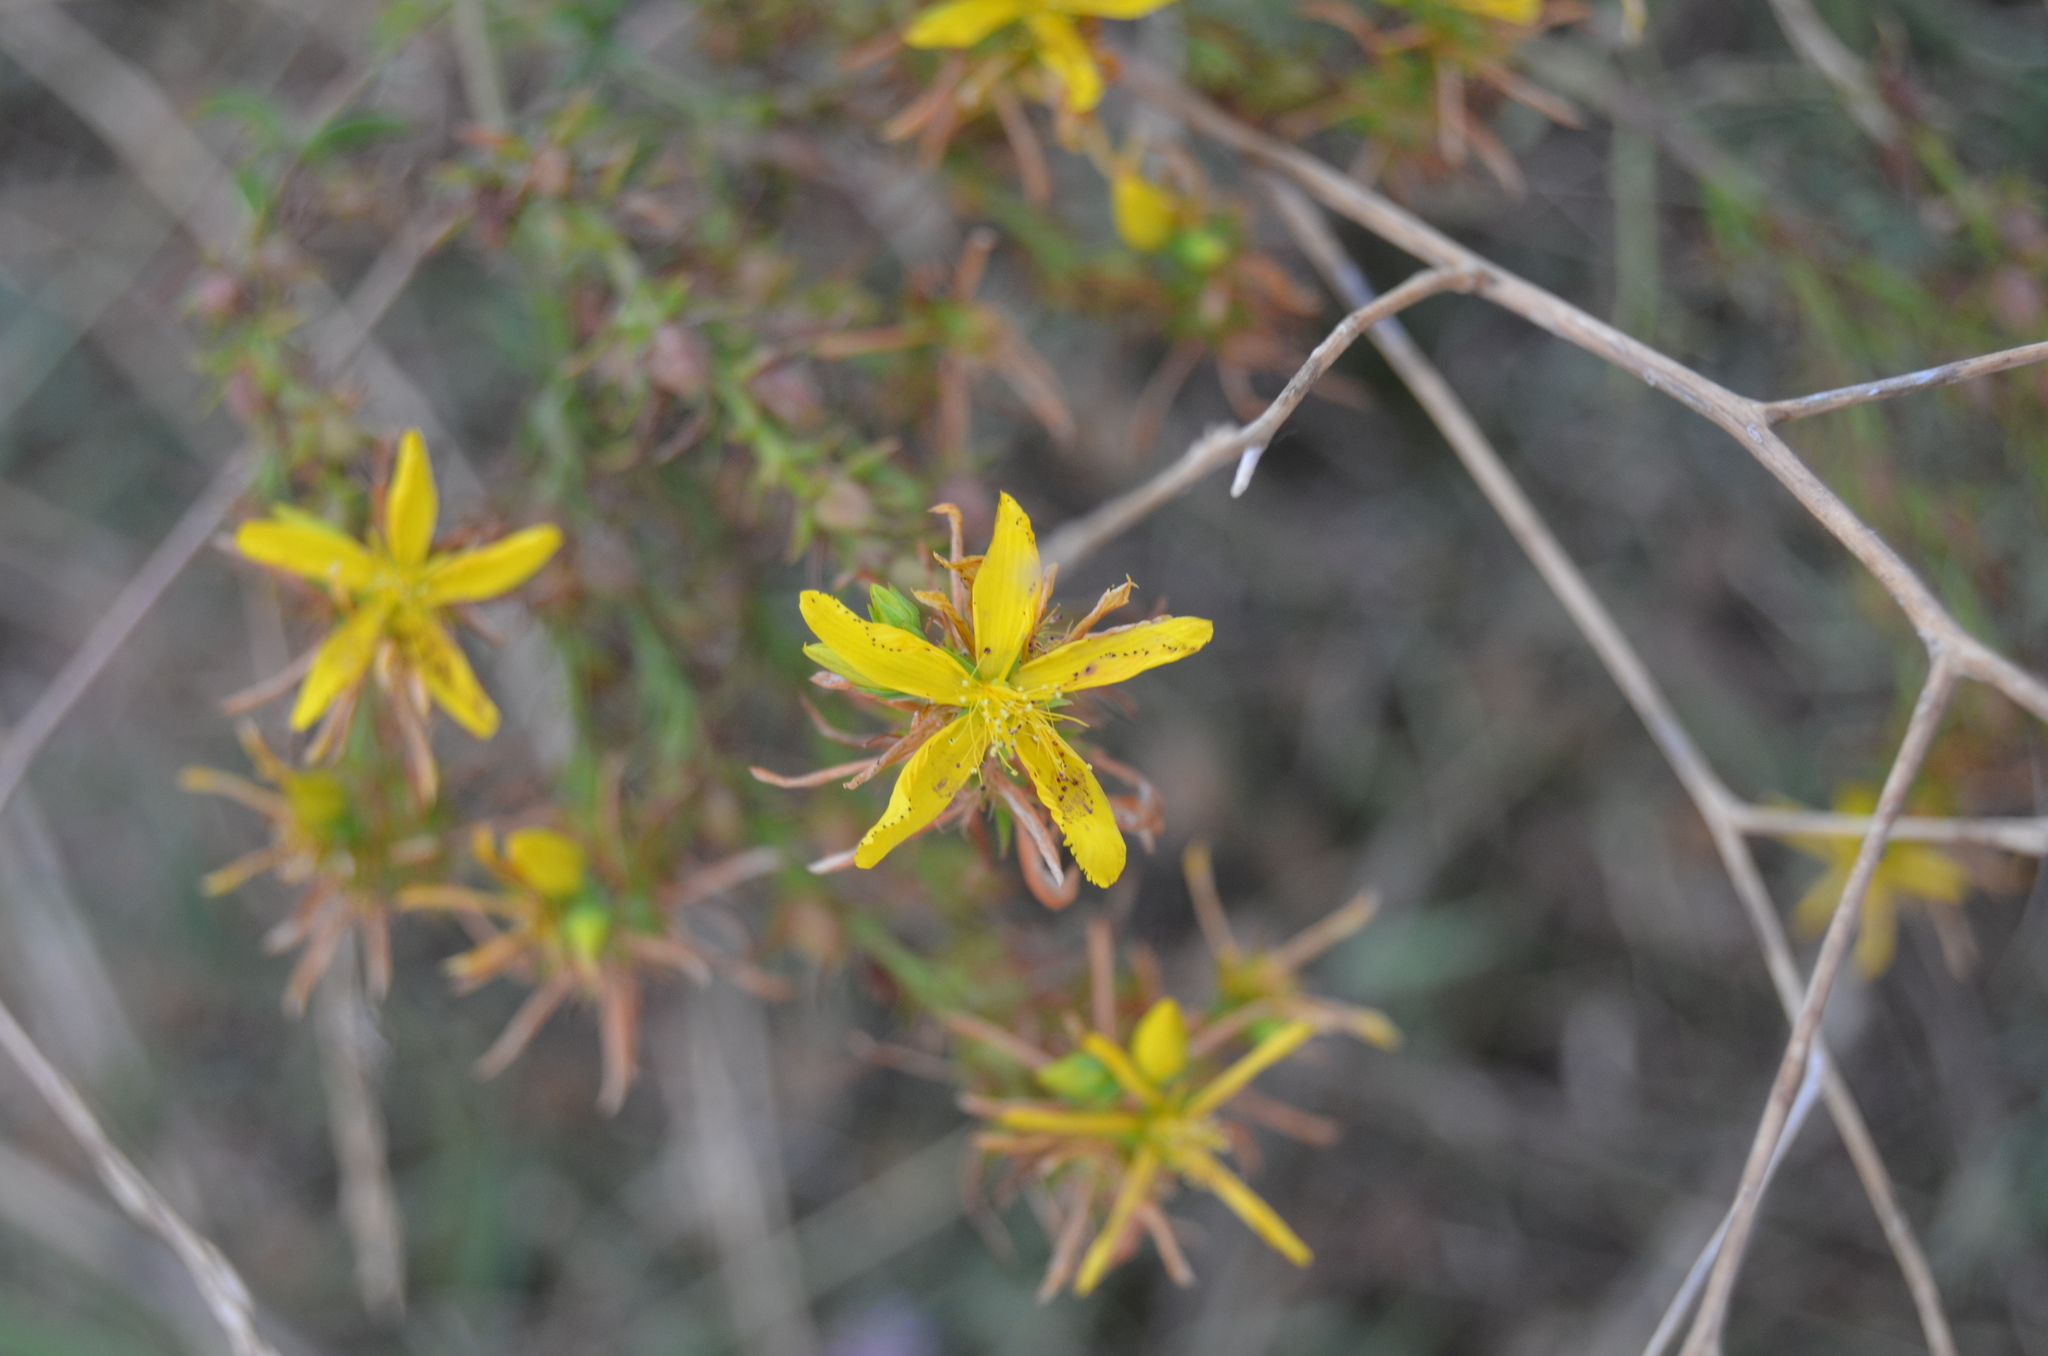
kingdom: Plantae
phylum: Tracheophyta
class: Magnoliopsida
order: Malpighiales
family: Hypericaceae
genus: Hypericum
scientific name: Hypericum perforatum
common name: Common st. johnswort
